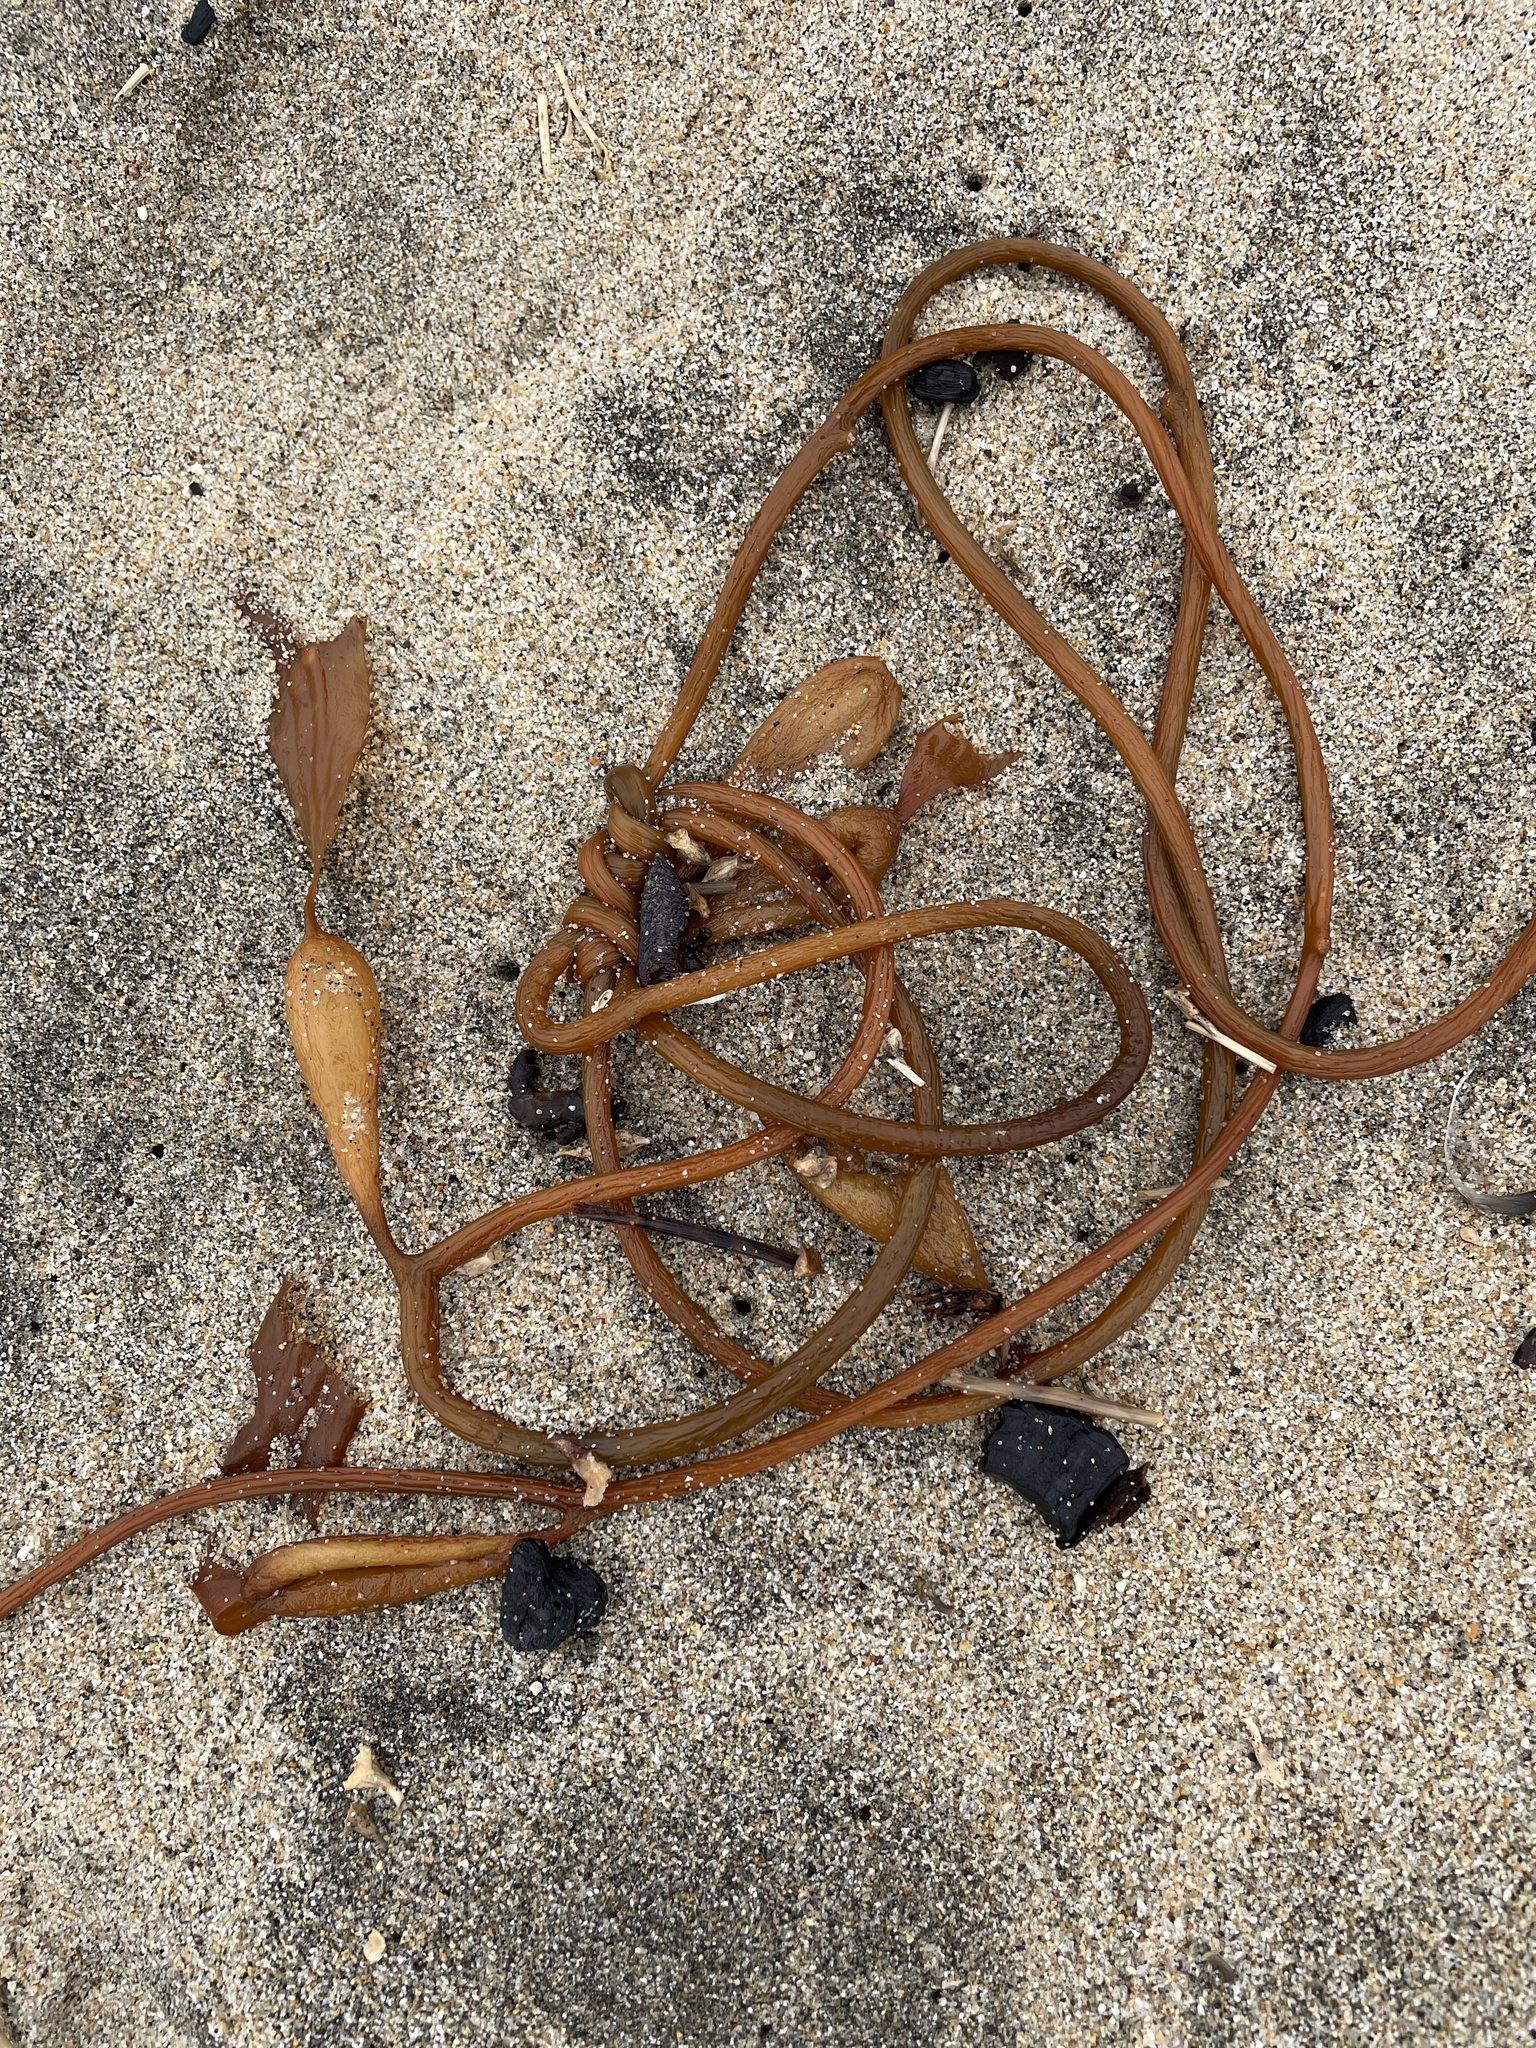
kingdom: Chromista
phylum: Ochrophyta
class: Phaeophyceae
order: Laminariales
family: Laminariaceae
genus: Macrocystis
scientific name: Macrocystis pyrifera
